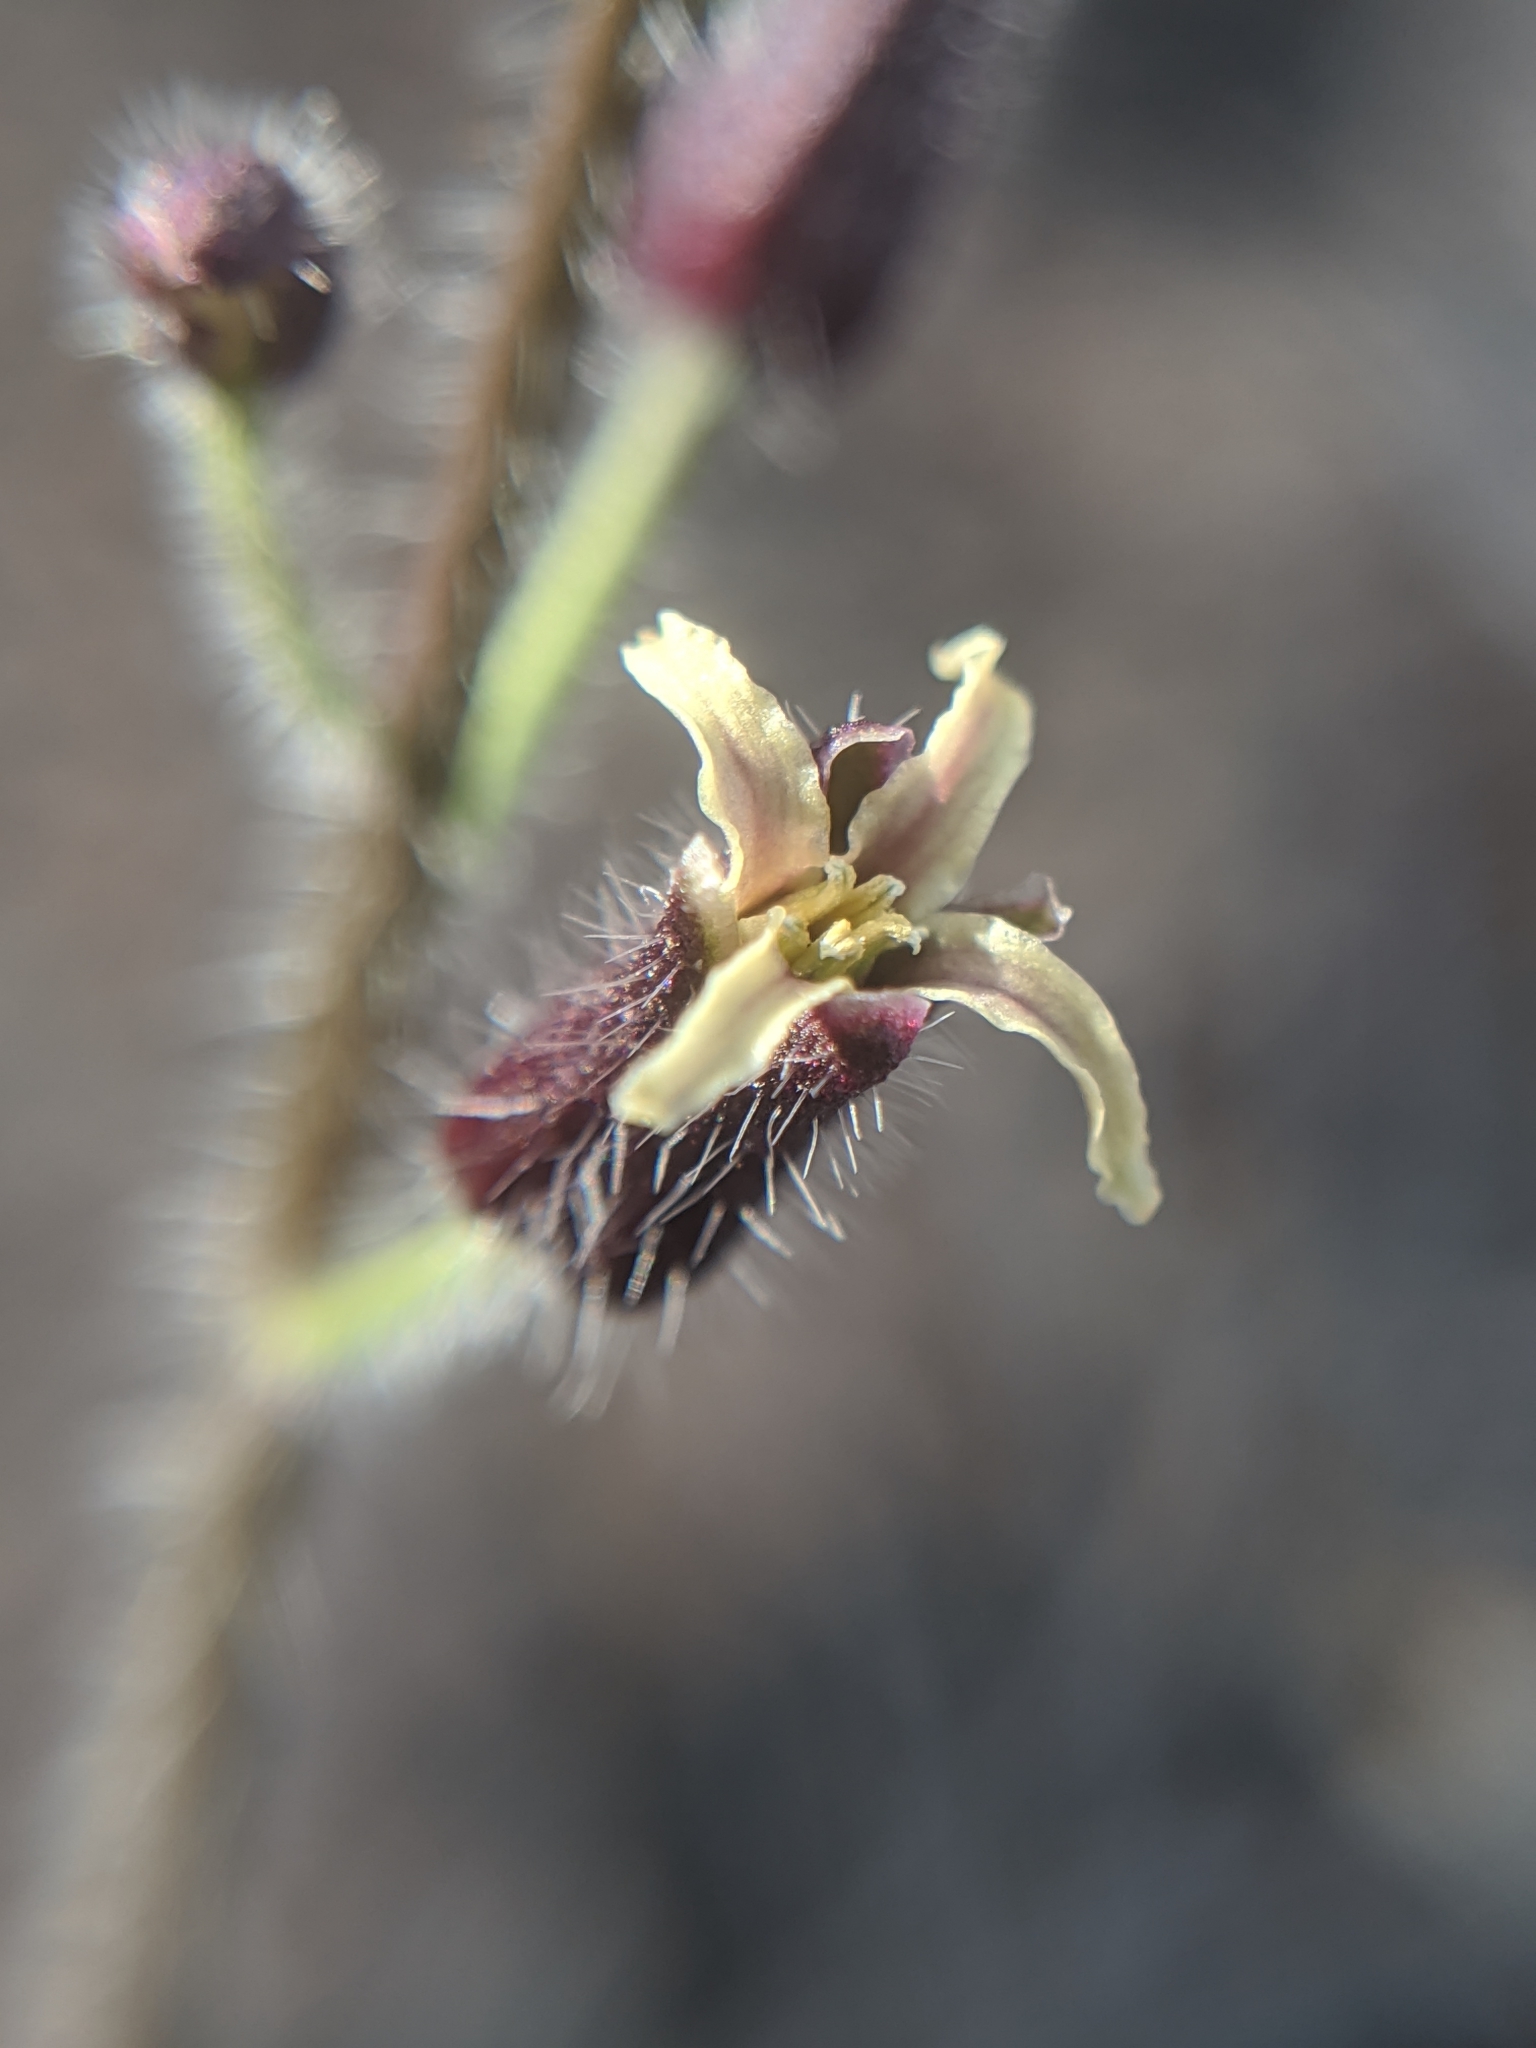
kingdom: Plantae
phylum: Tracheophyta
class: Magnoliopsida
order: Brassicales
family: Brassicaceae
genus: Streptanthus
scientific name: Streptanthus pilosus
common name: Chocolate drops
